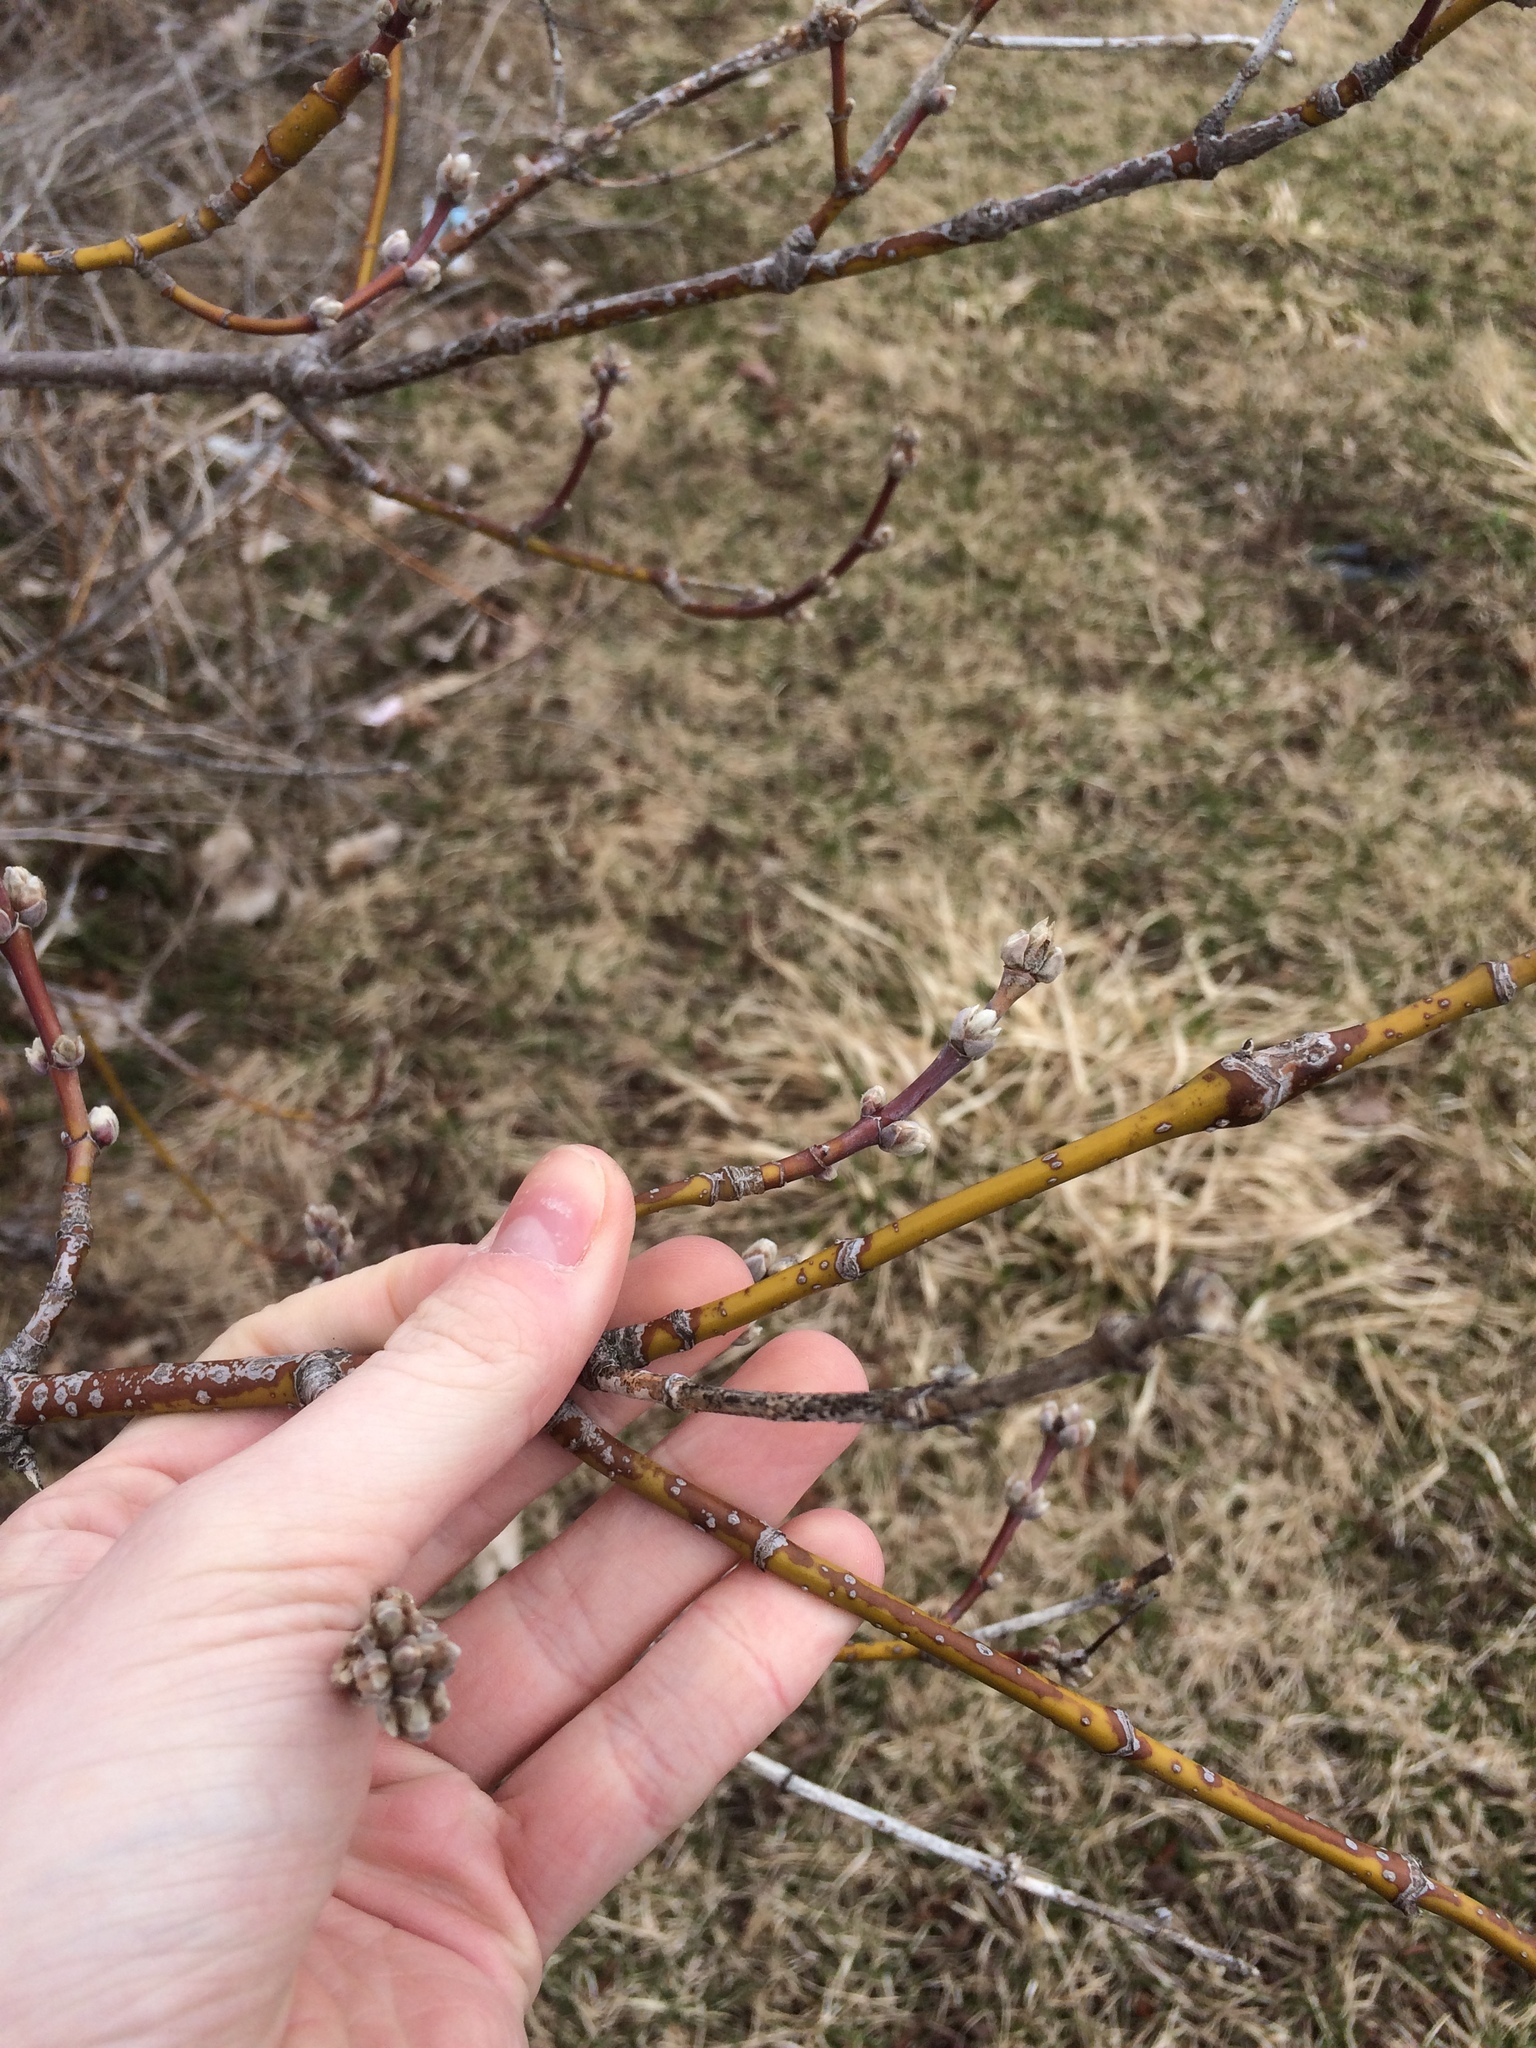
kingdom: Plantae
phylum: Tracheophyta
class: Magnoliopsida
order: Sapindales
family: Sapindaceae
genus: Acer
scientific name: Acer negundo
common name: Ashleaf maple
